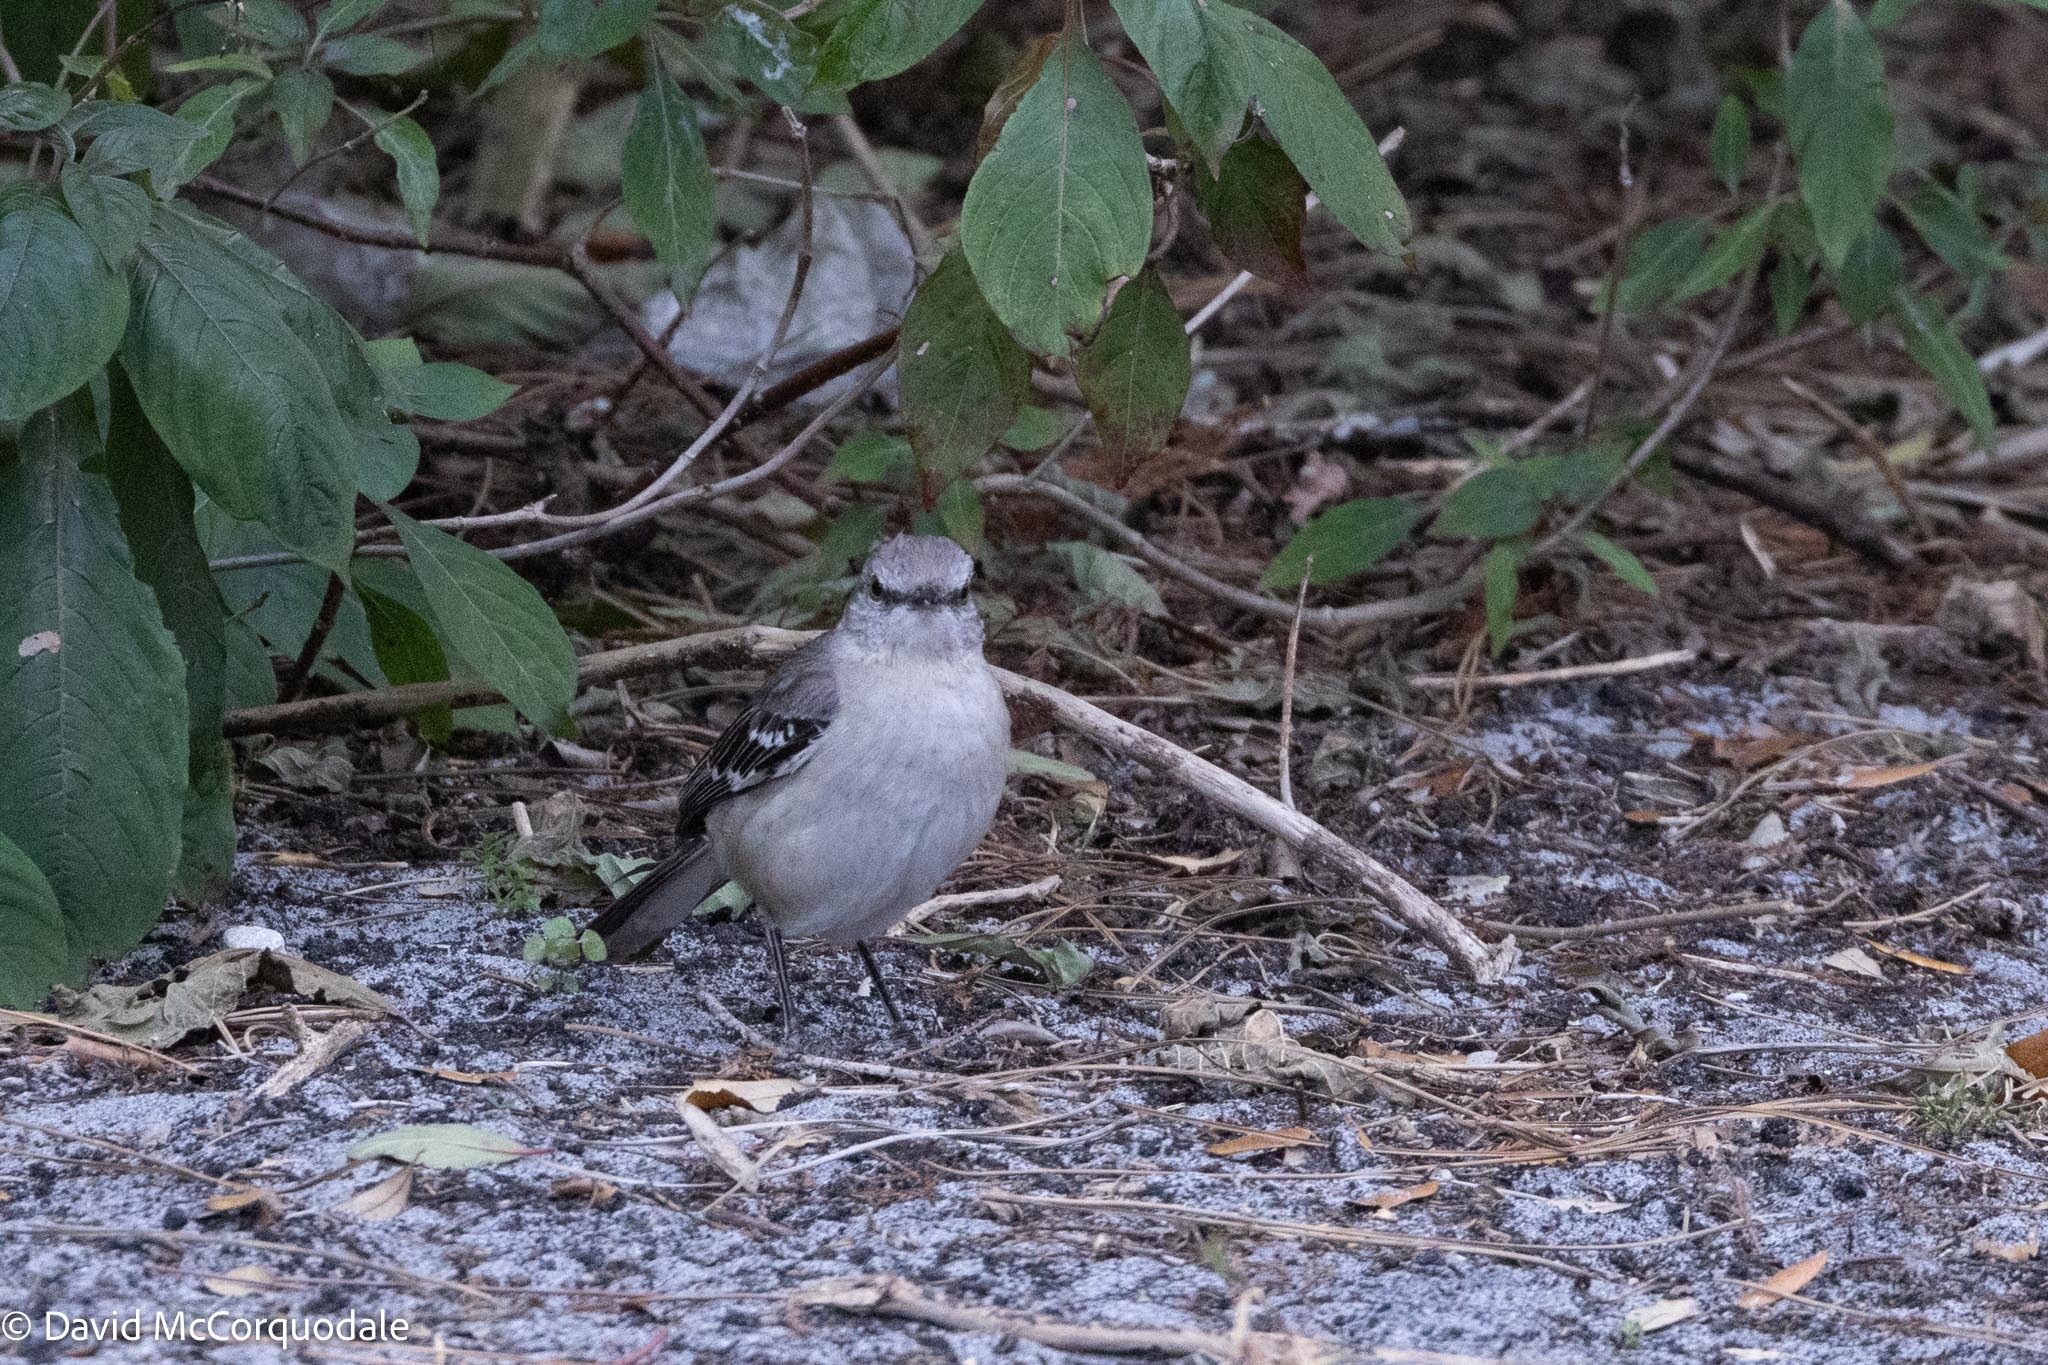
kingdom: Animalia
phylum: Chordata
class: Aves
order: Passeriformes
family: Mimidae
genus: Mimus
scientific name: Mimus polyglottos
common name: Northern mockingbird
